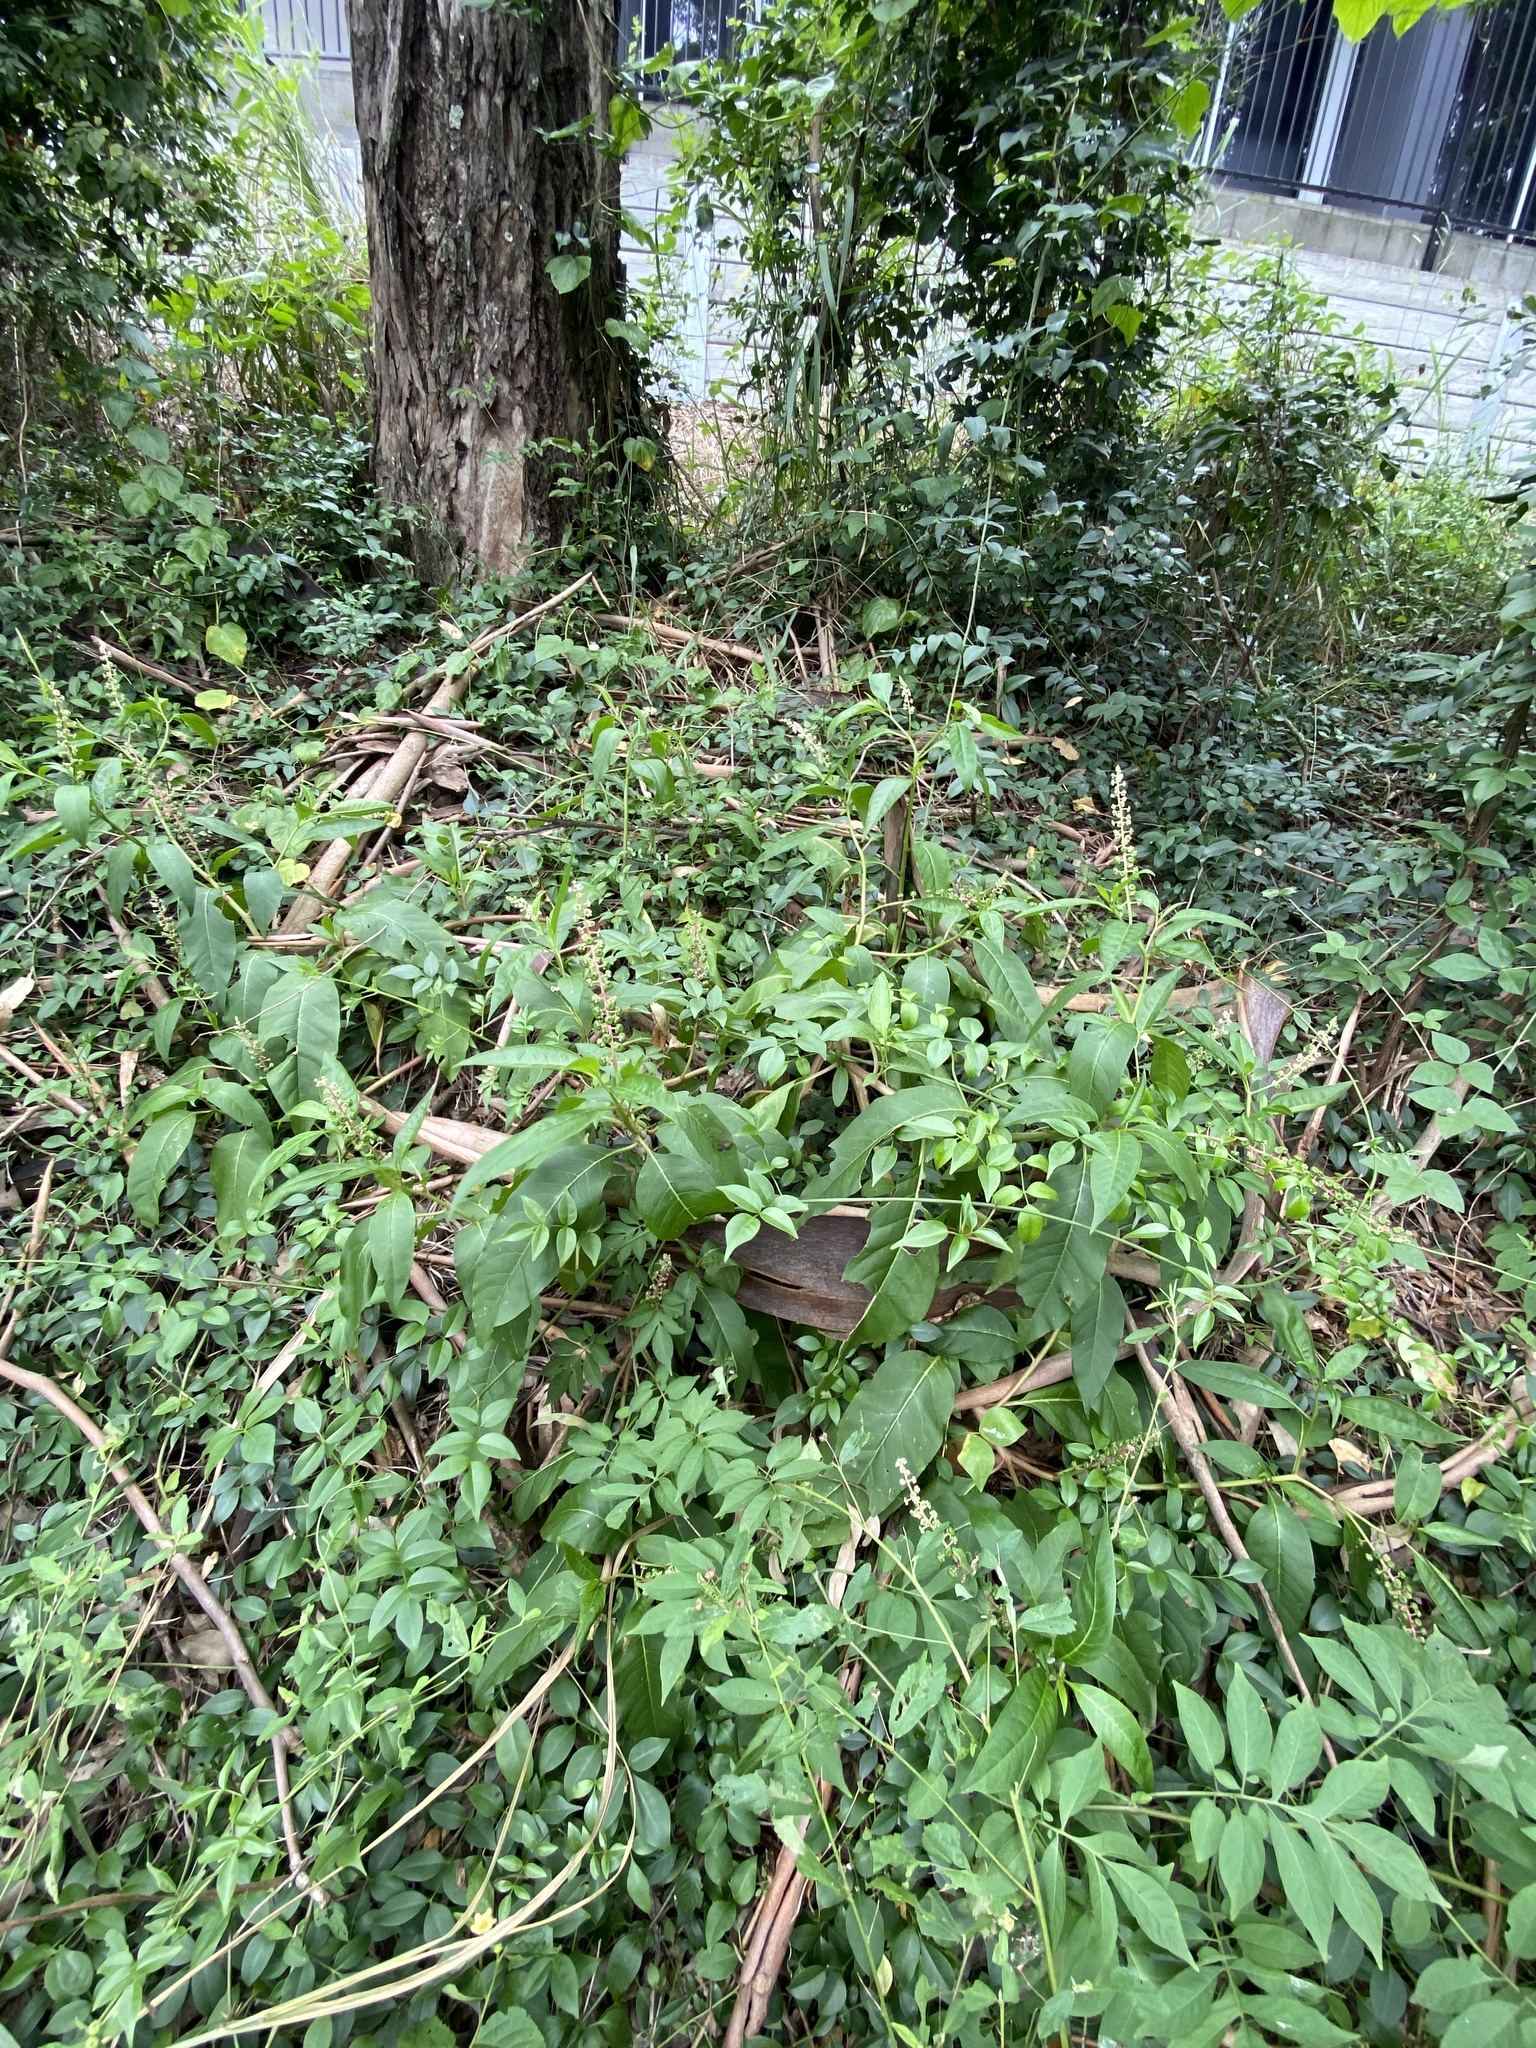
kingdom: Plantae
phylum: Tracheophyta
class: Magnoliopsida
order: Caryophyllales
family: Phytolaccaceae
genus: Phytolacca
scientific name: Phytolacca americana
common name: American pokeweed
